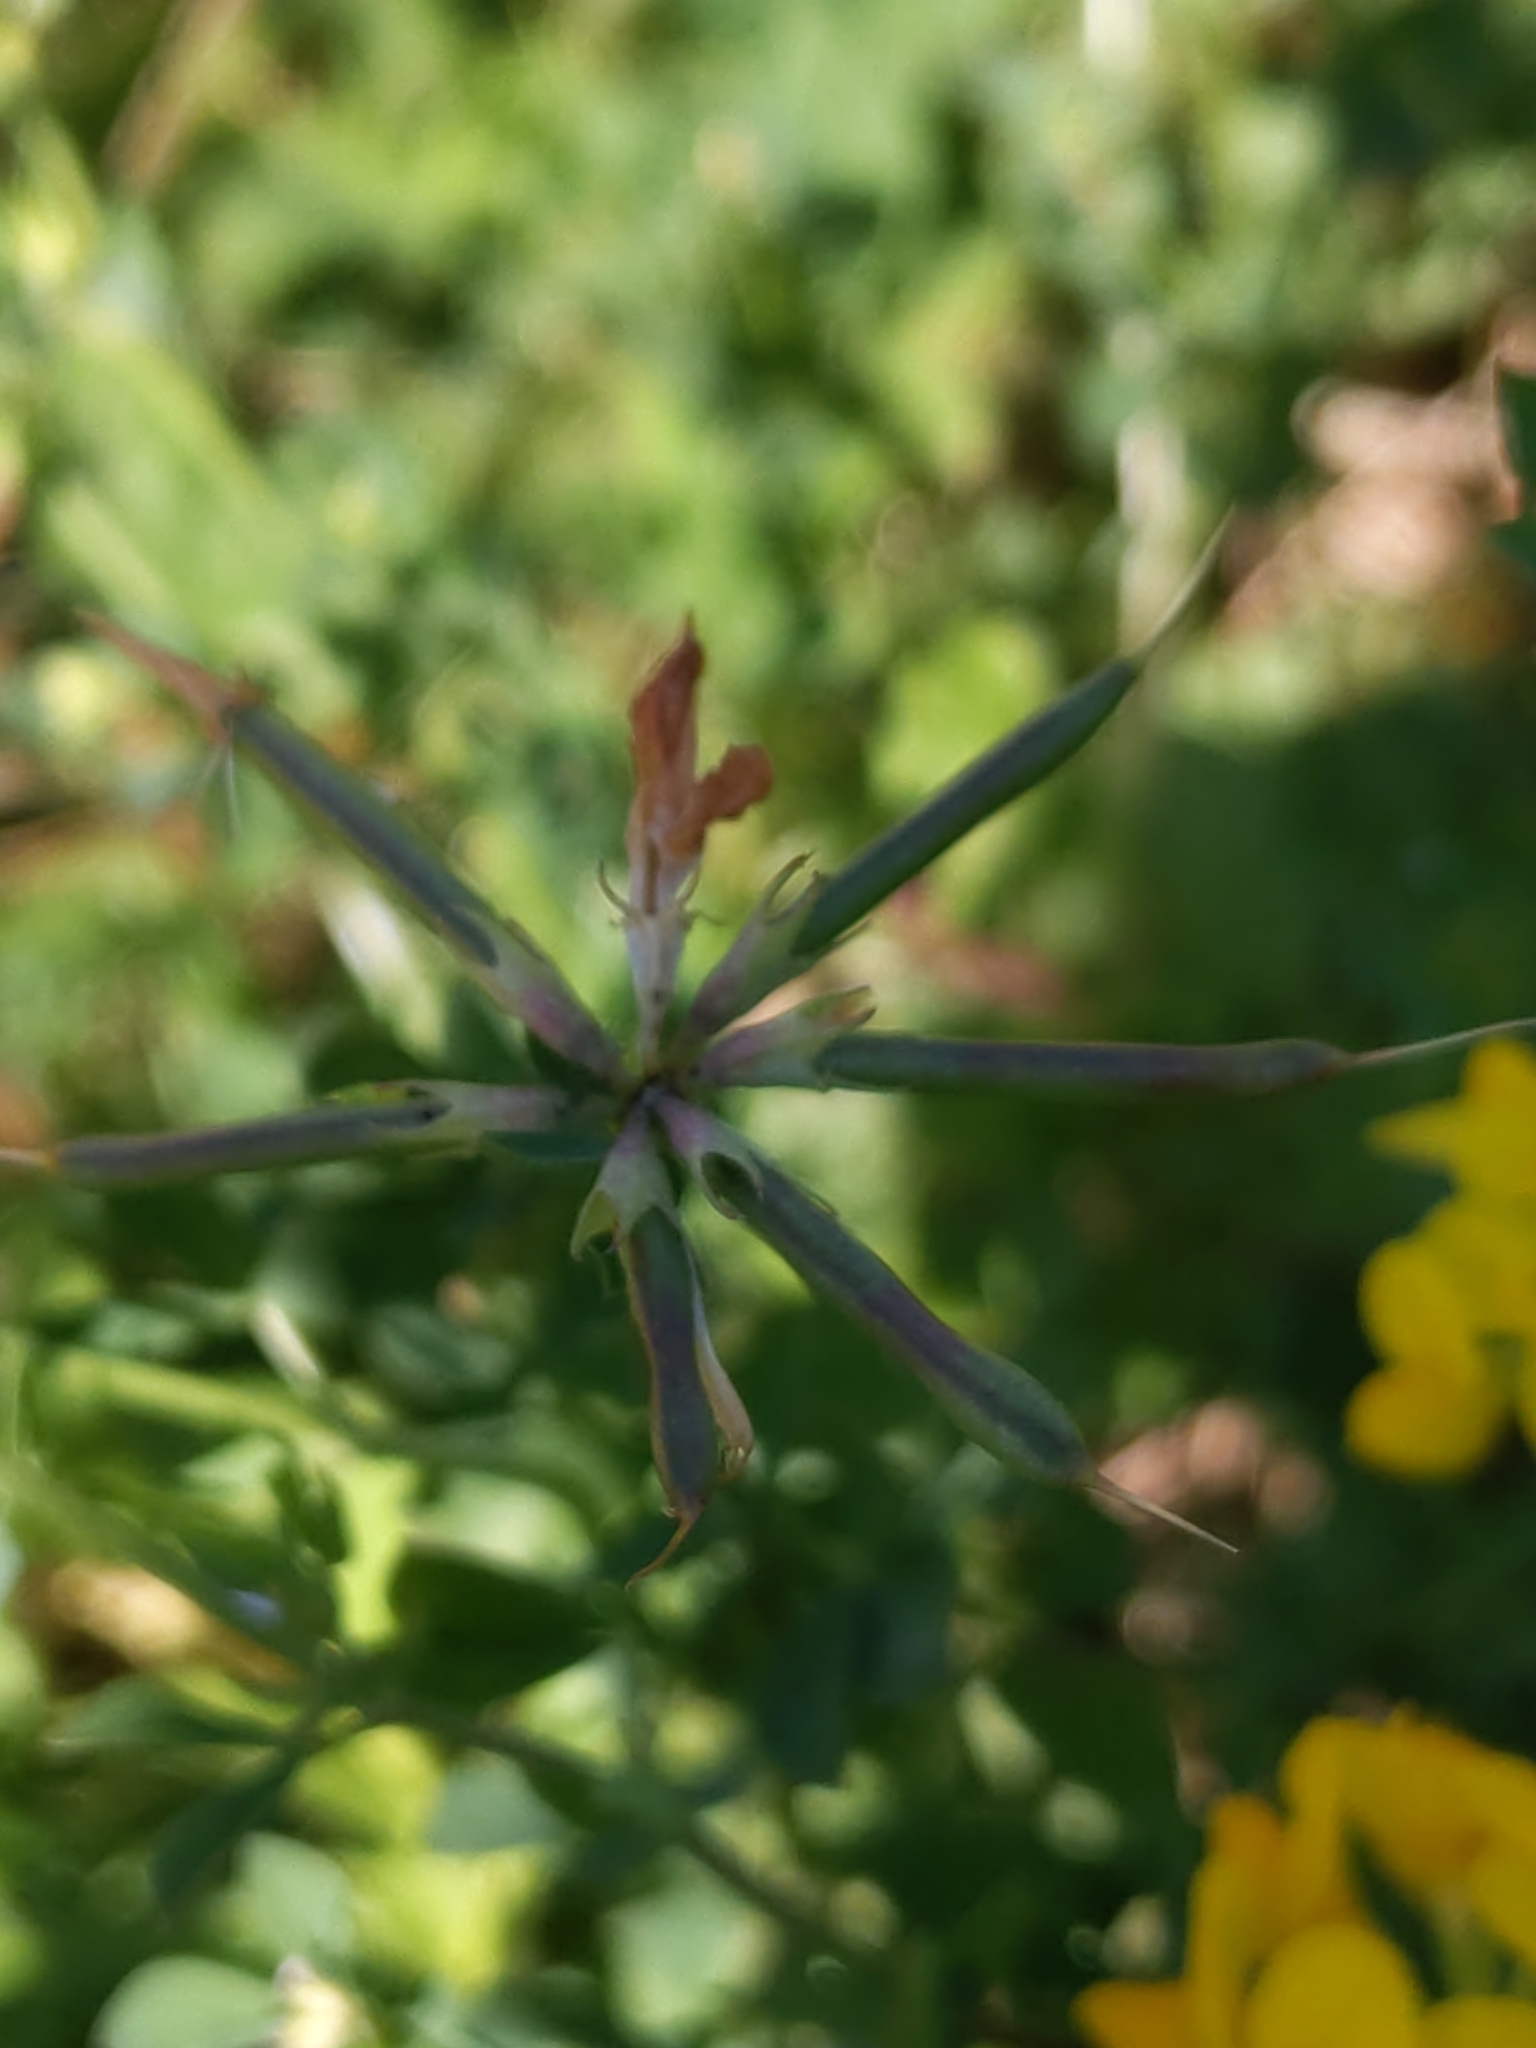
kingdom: Plantae
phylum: Tracheophyta
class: Magnoliopsida
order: Fabales
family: Fabaceae
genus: Lotus
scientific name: Lotus corniculatus
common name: Common bird's-foot-trefoil
